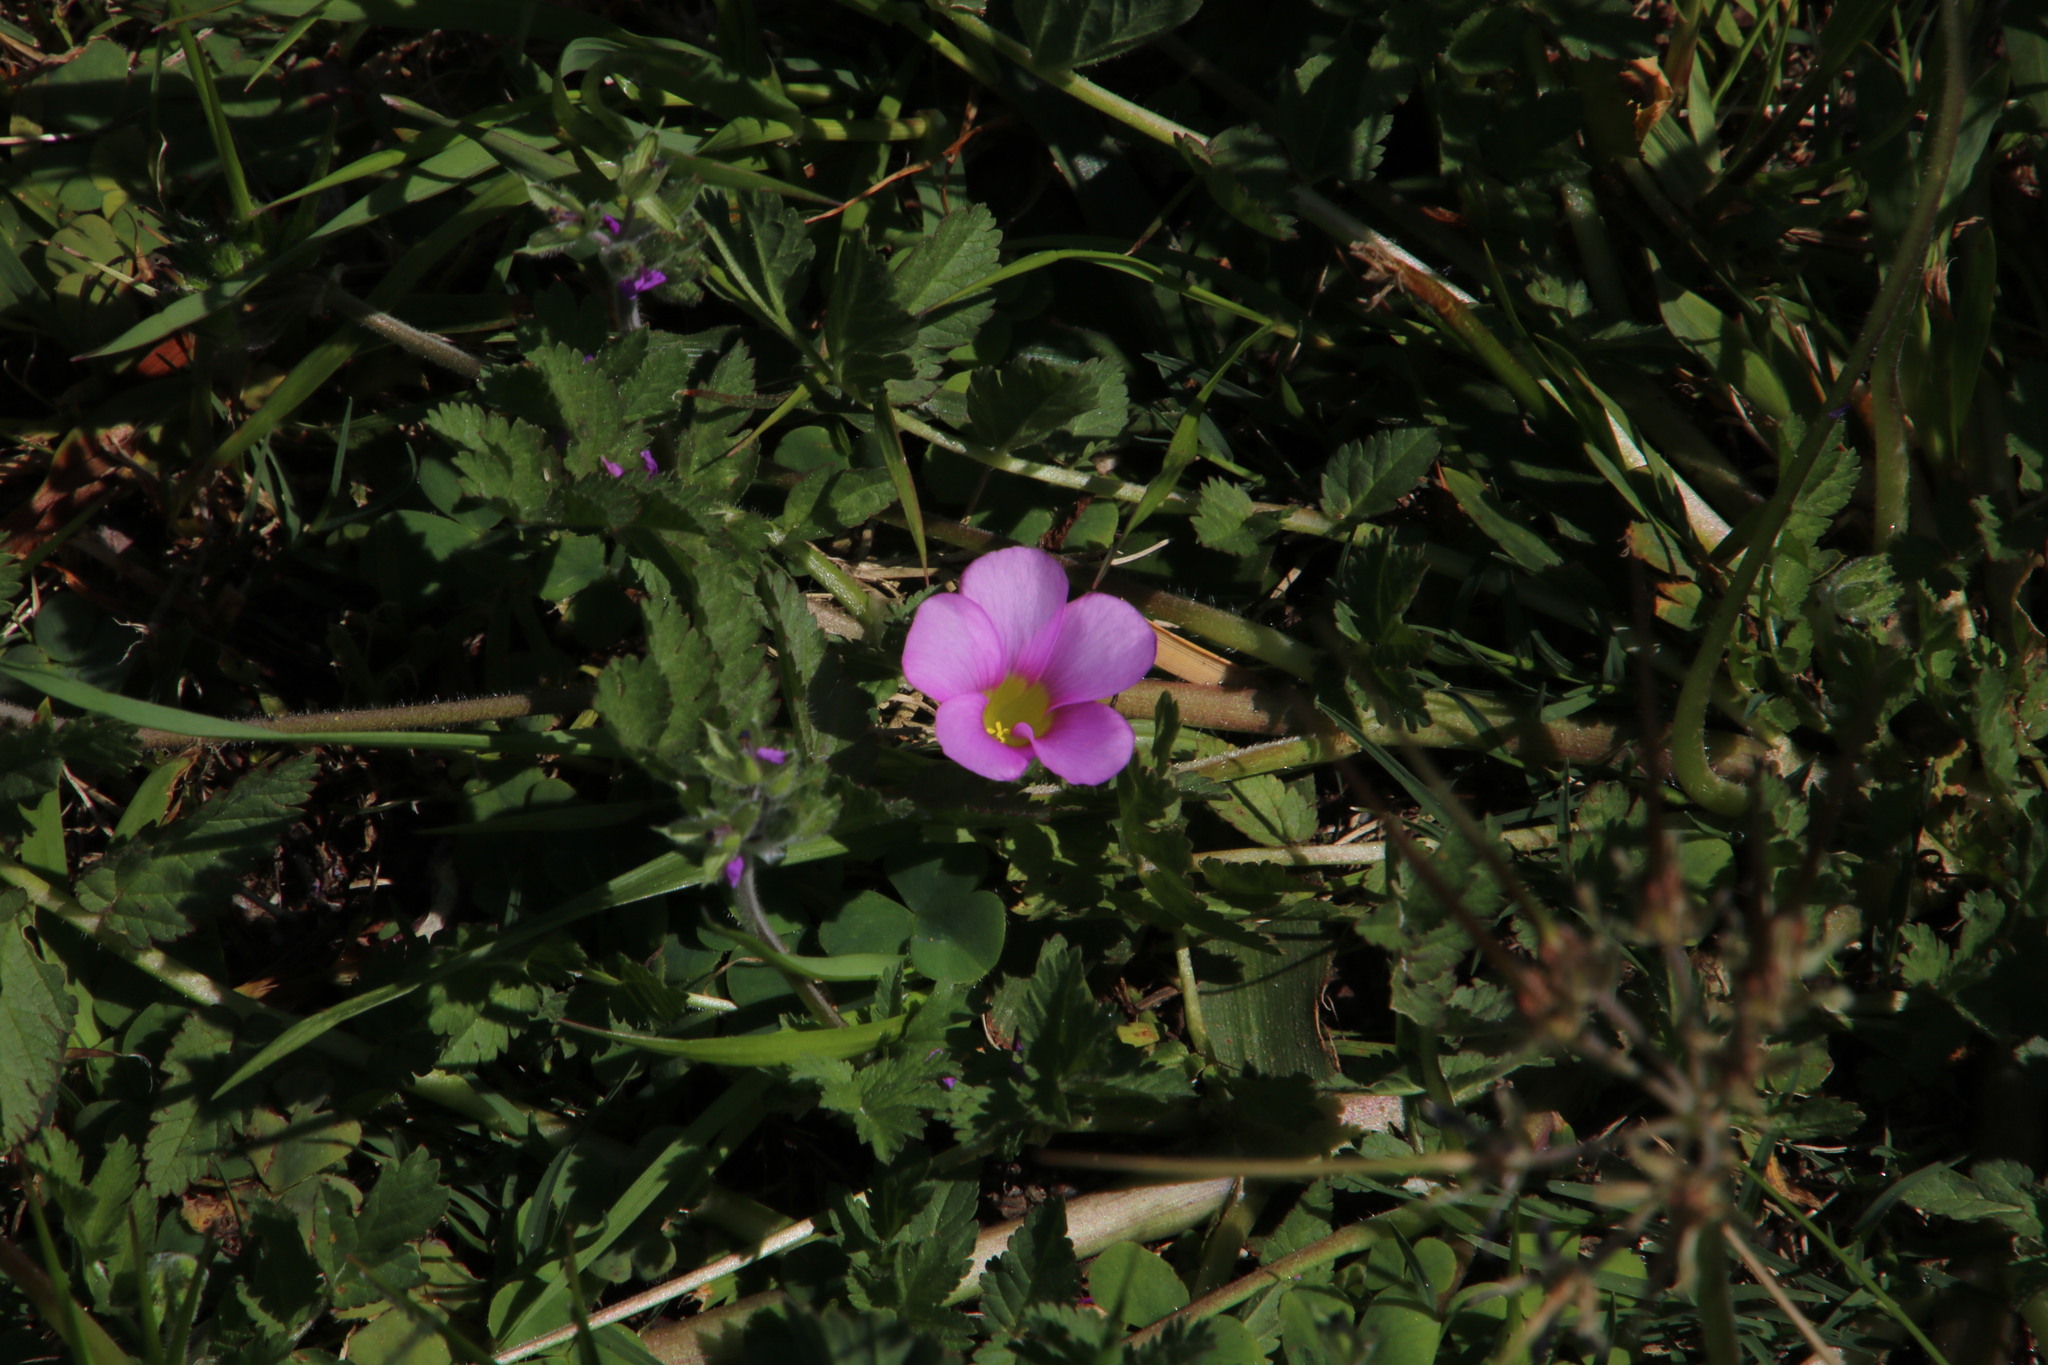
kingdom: Plantae
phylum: Tracheophyta
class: Magnoliopsida
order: Oxalidales
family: Oxalidaceae
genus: Oxalis
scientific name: Oxalis purpurea
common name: Purple woodsorrel
